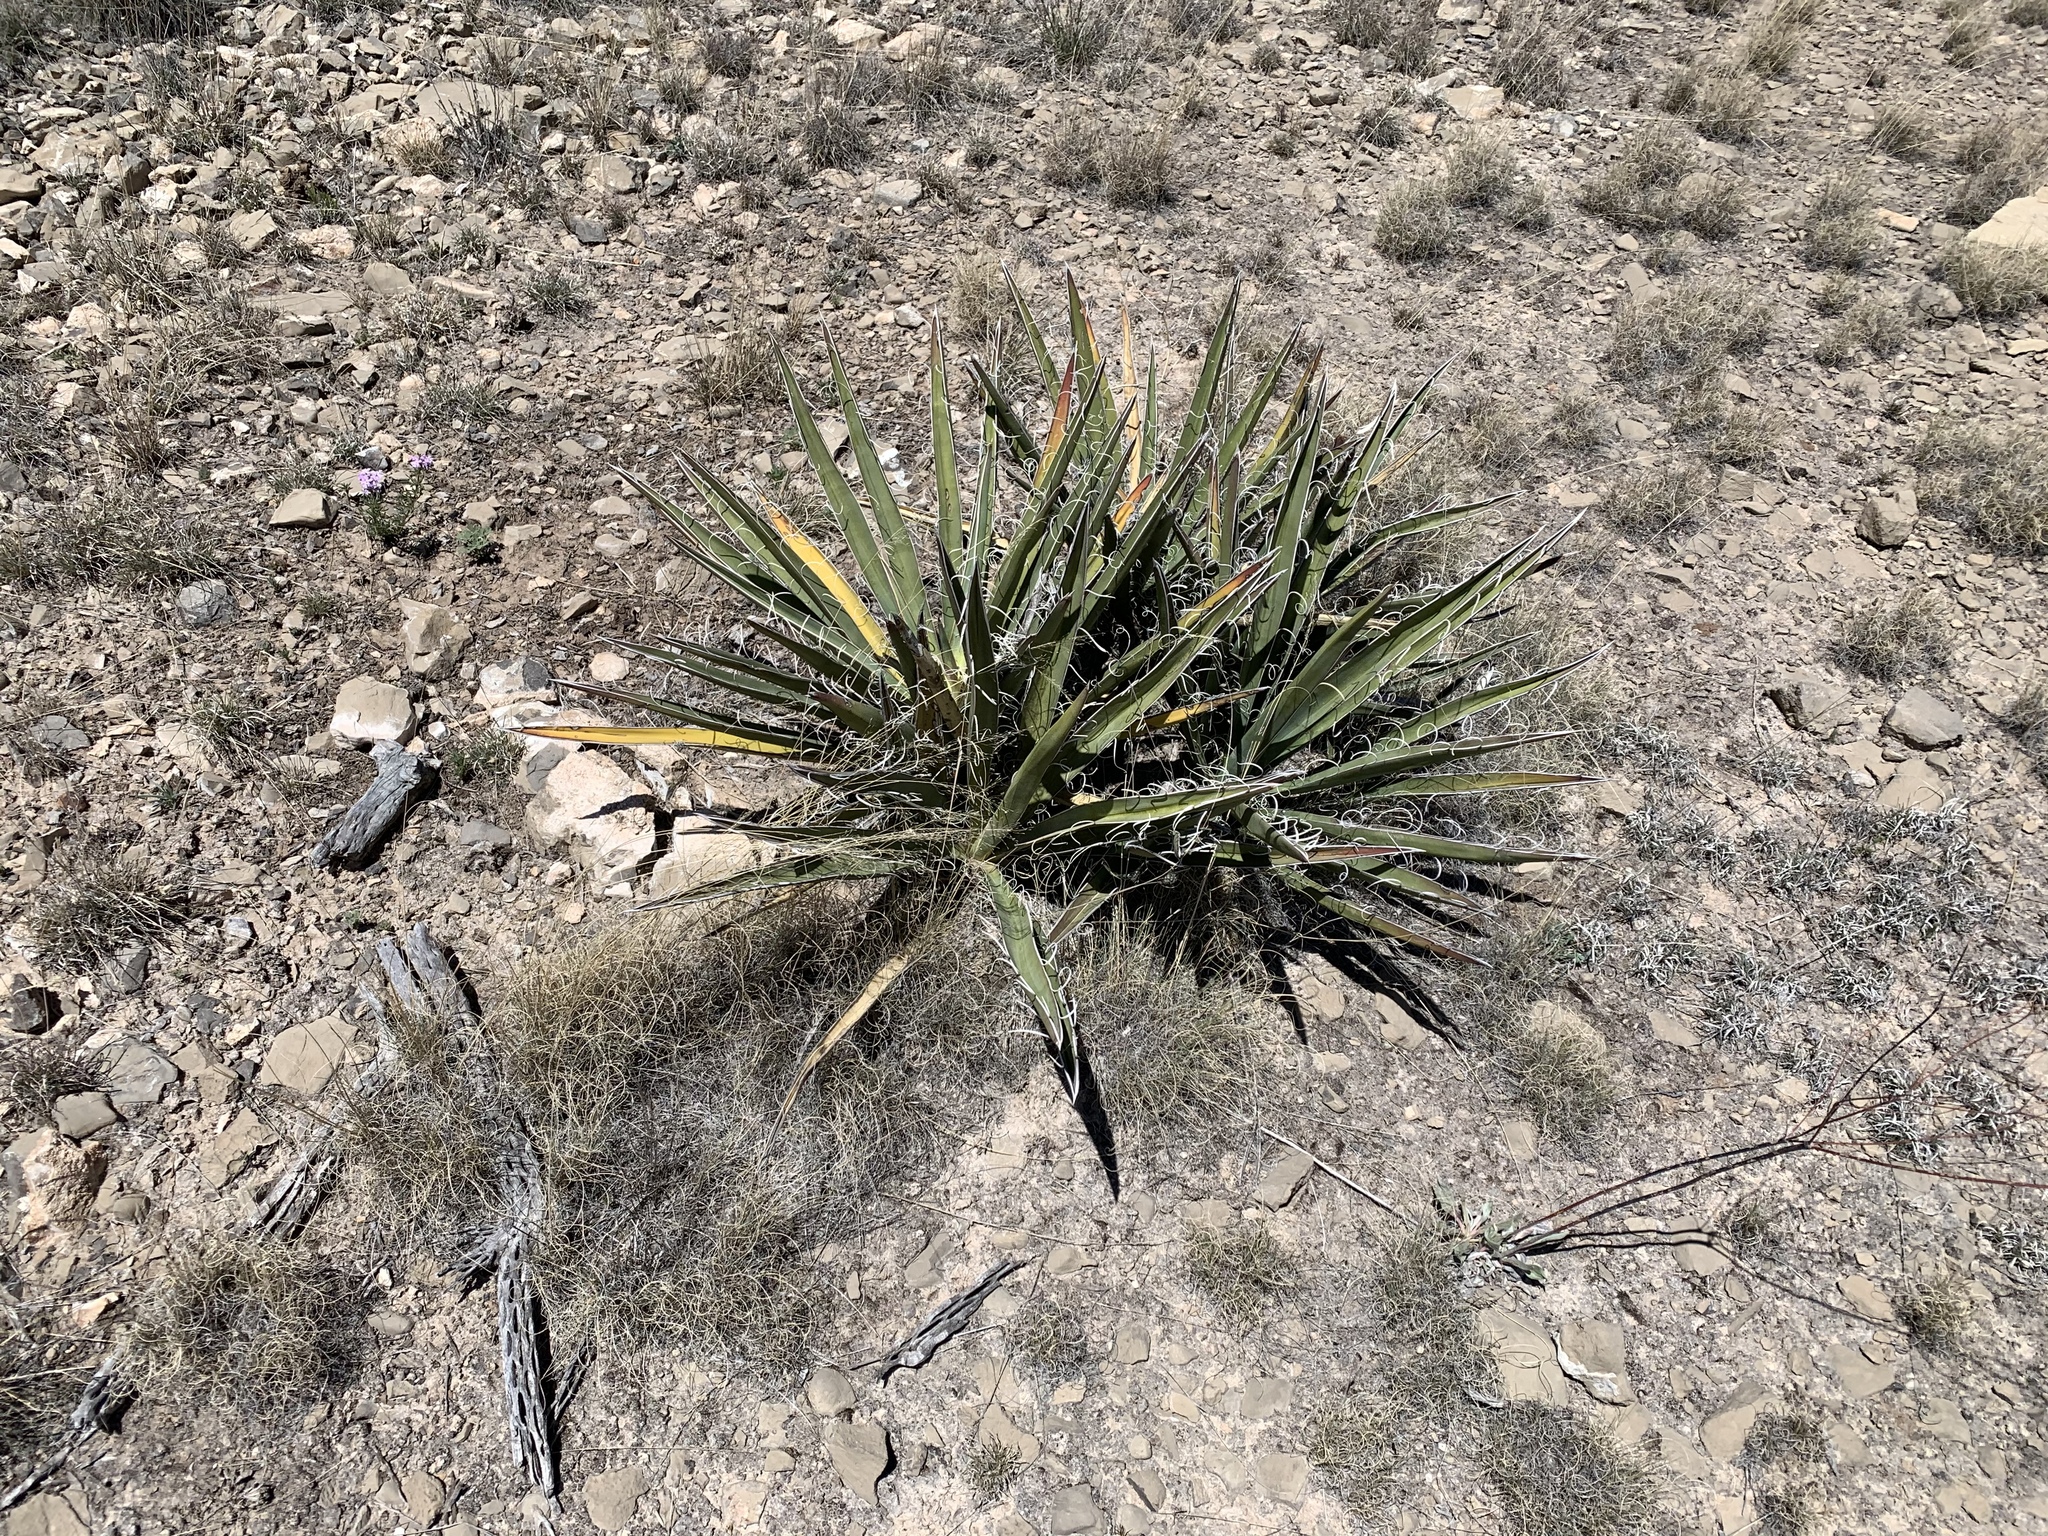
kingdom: Plantae
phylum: Tracheophyta
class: Liliopsida
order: Asparagales
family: Asparagaceae
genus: Yucca
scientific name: Yucca baccata
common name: Banana yucca
